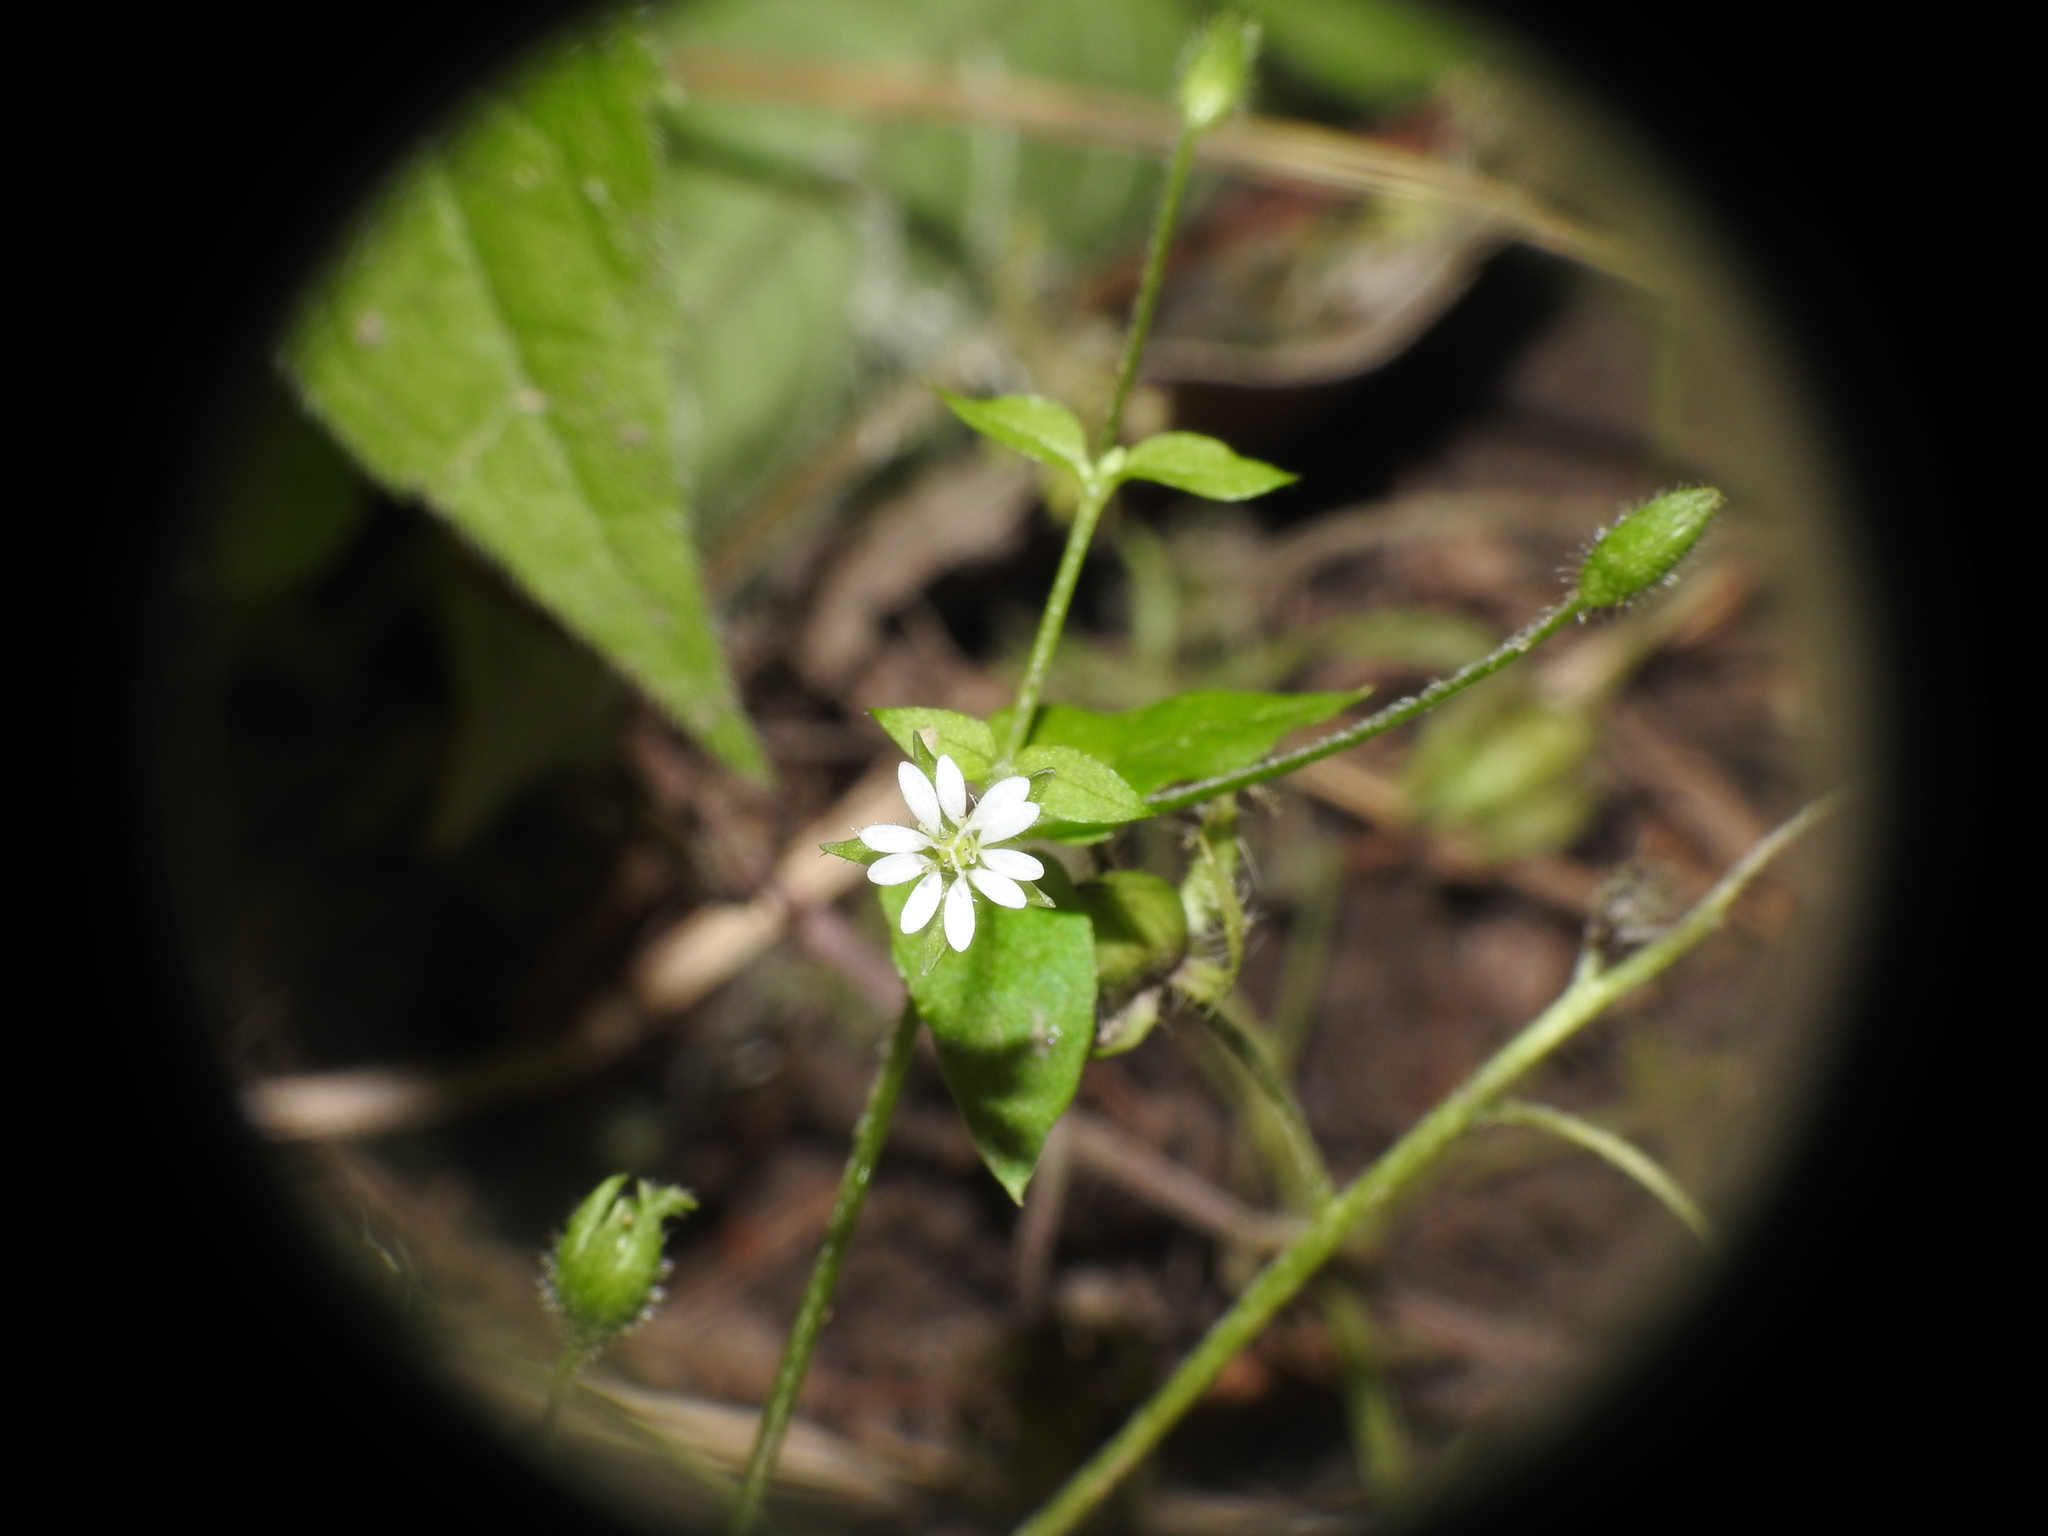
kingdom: Plantae
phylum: Tracheophyta
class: Magnoliopsida
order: Caryophyllales
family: Caryophyllaceae
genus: Stellaria
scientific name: Stellaria media
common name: Common chickweed
